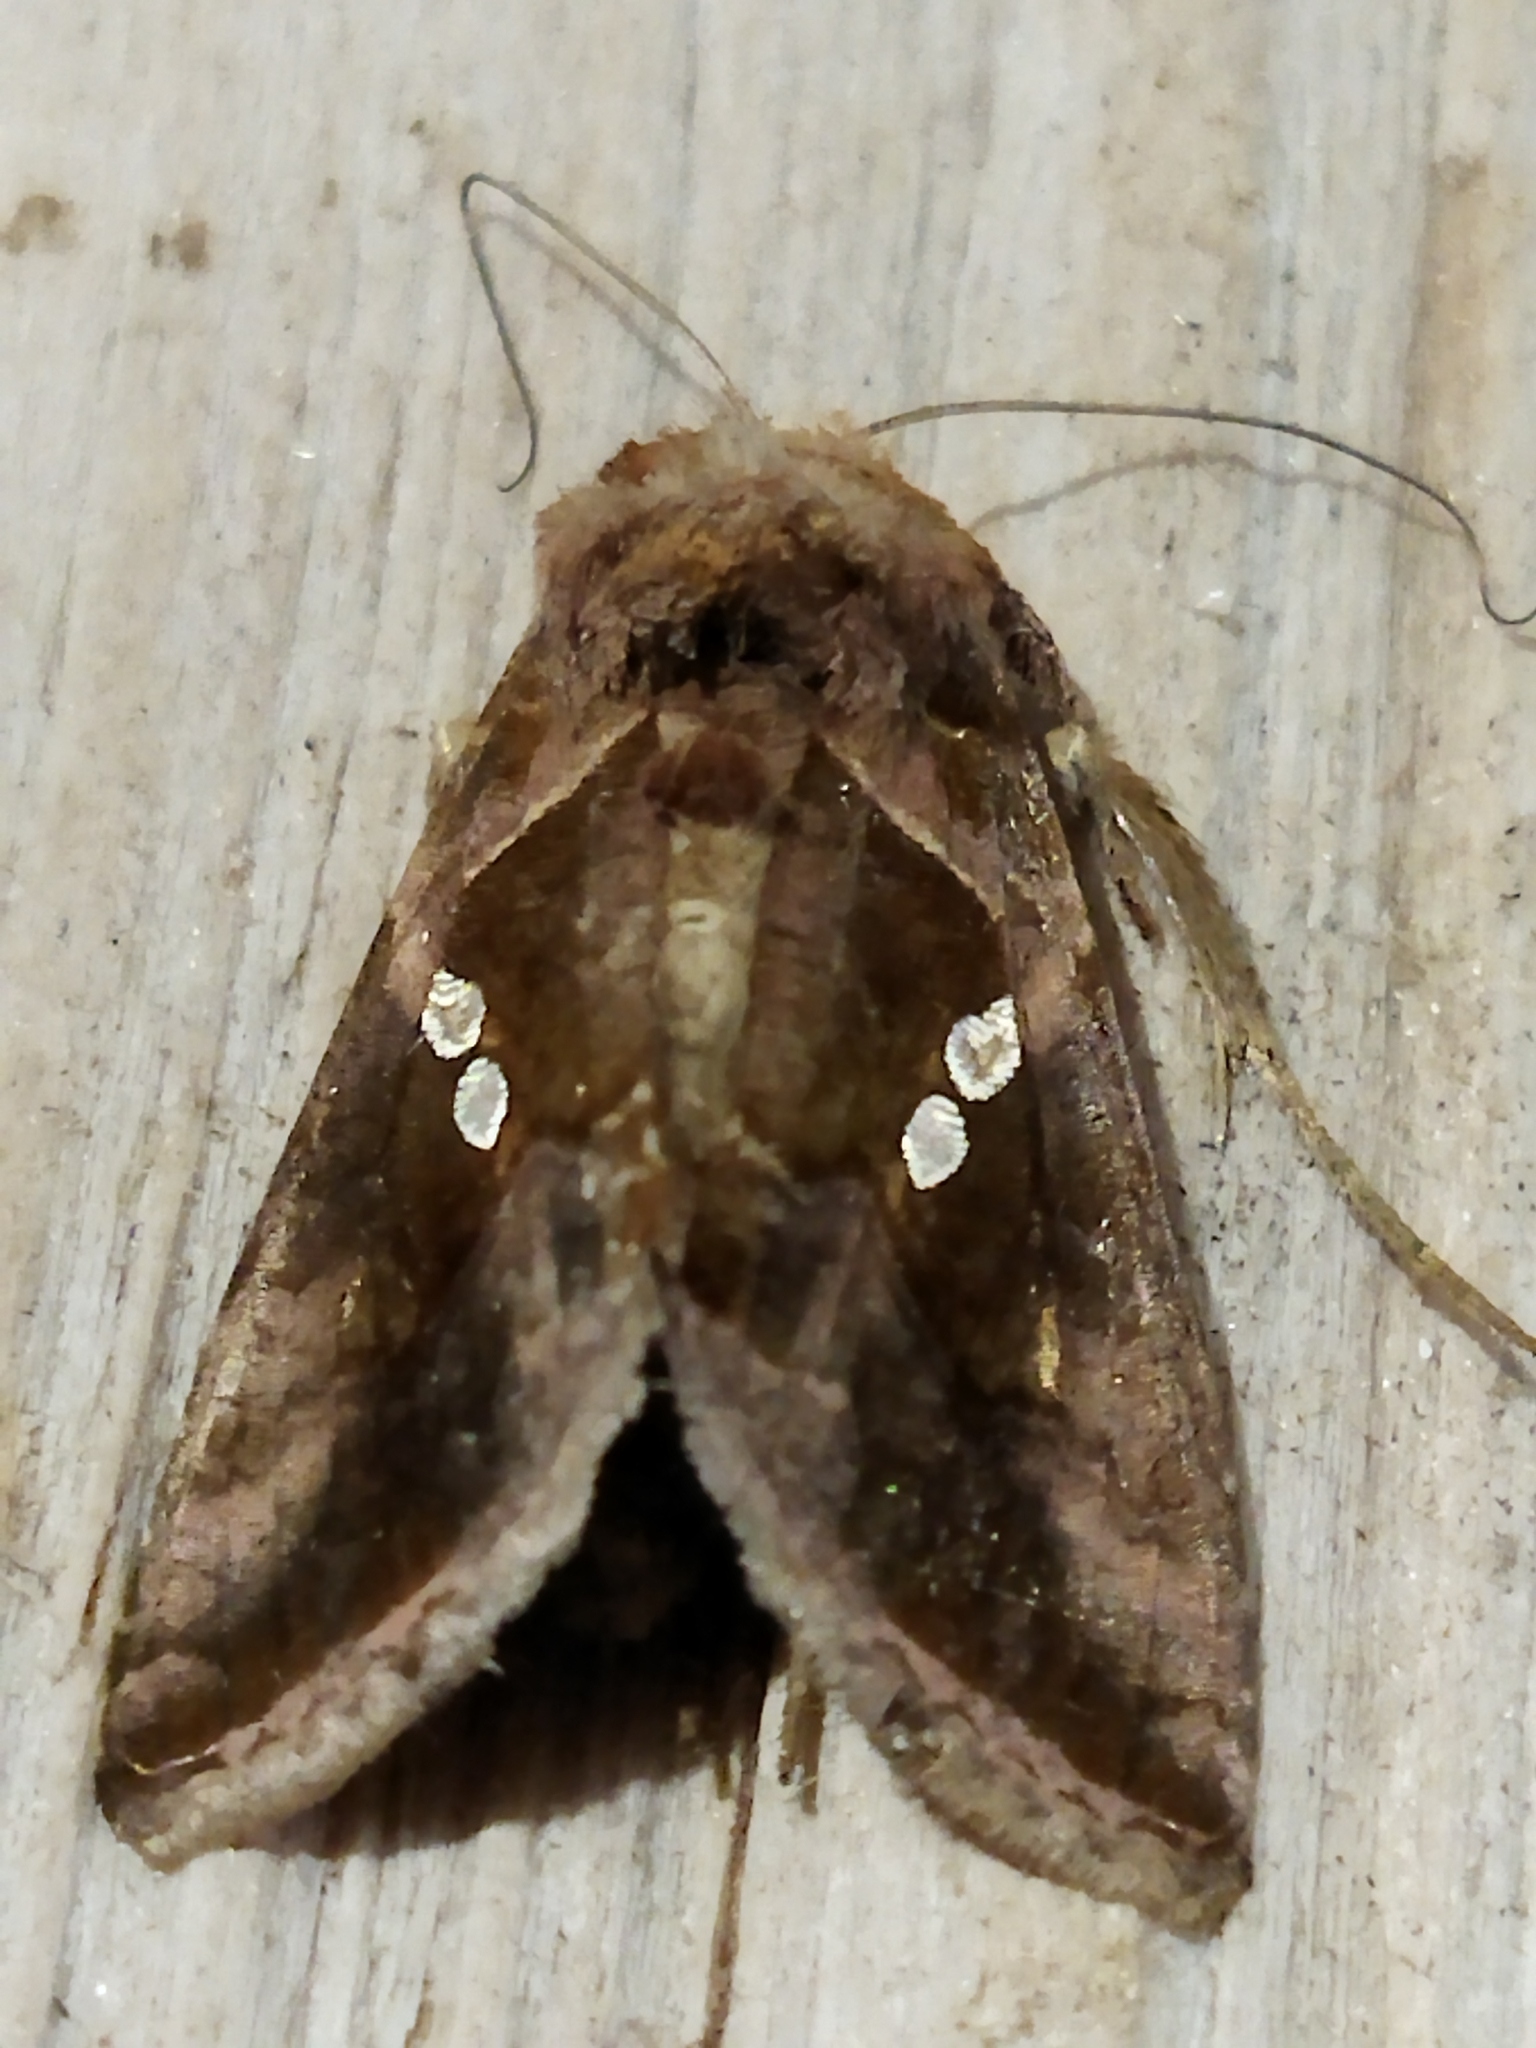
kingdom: Animalia
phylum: Arthropoda
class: Insecta
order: Lepidoptera
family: Noctuidae
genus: Chrysodeixis
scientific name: Chrysodeixis chalcites
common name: Golden twin-spot
